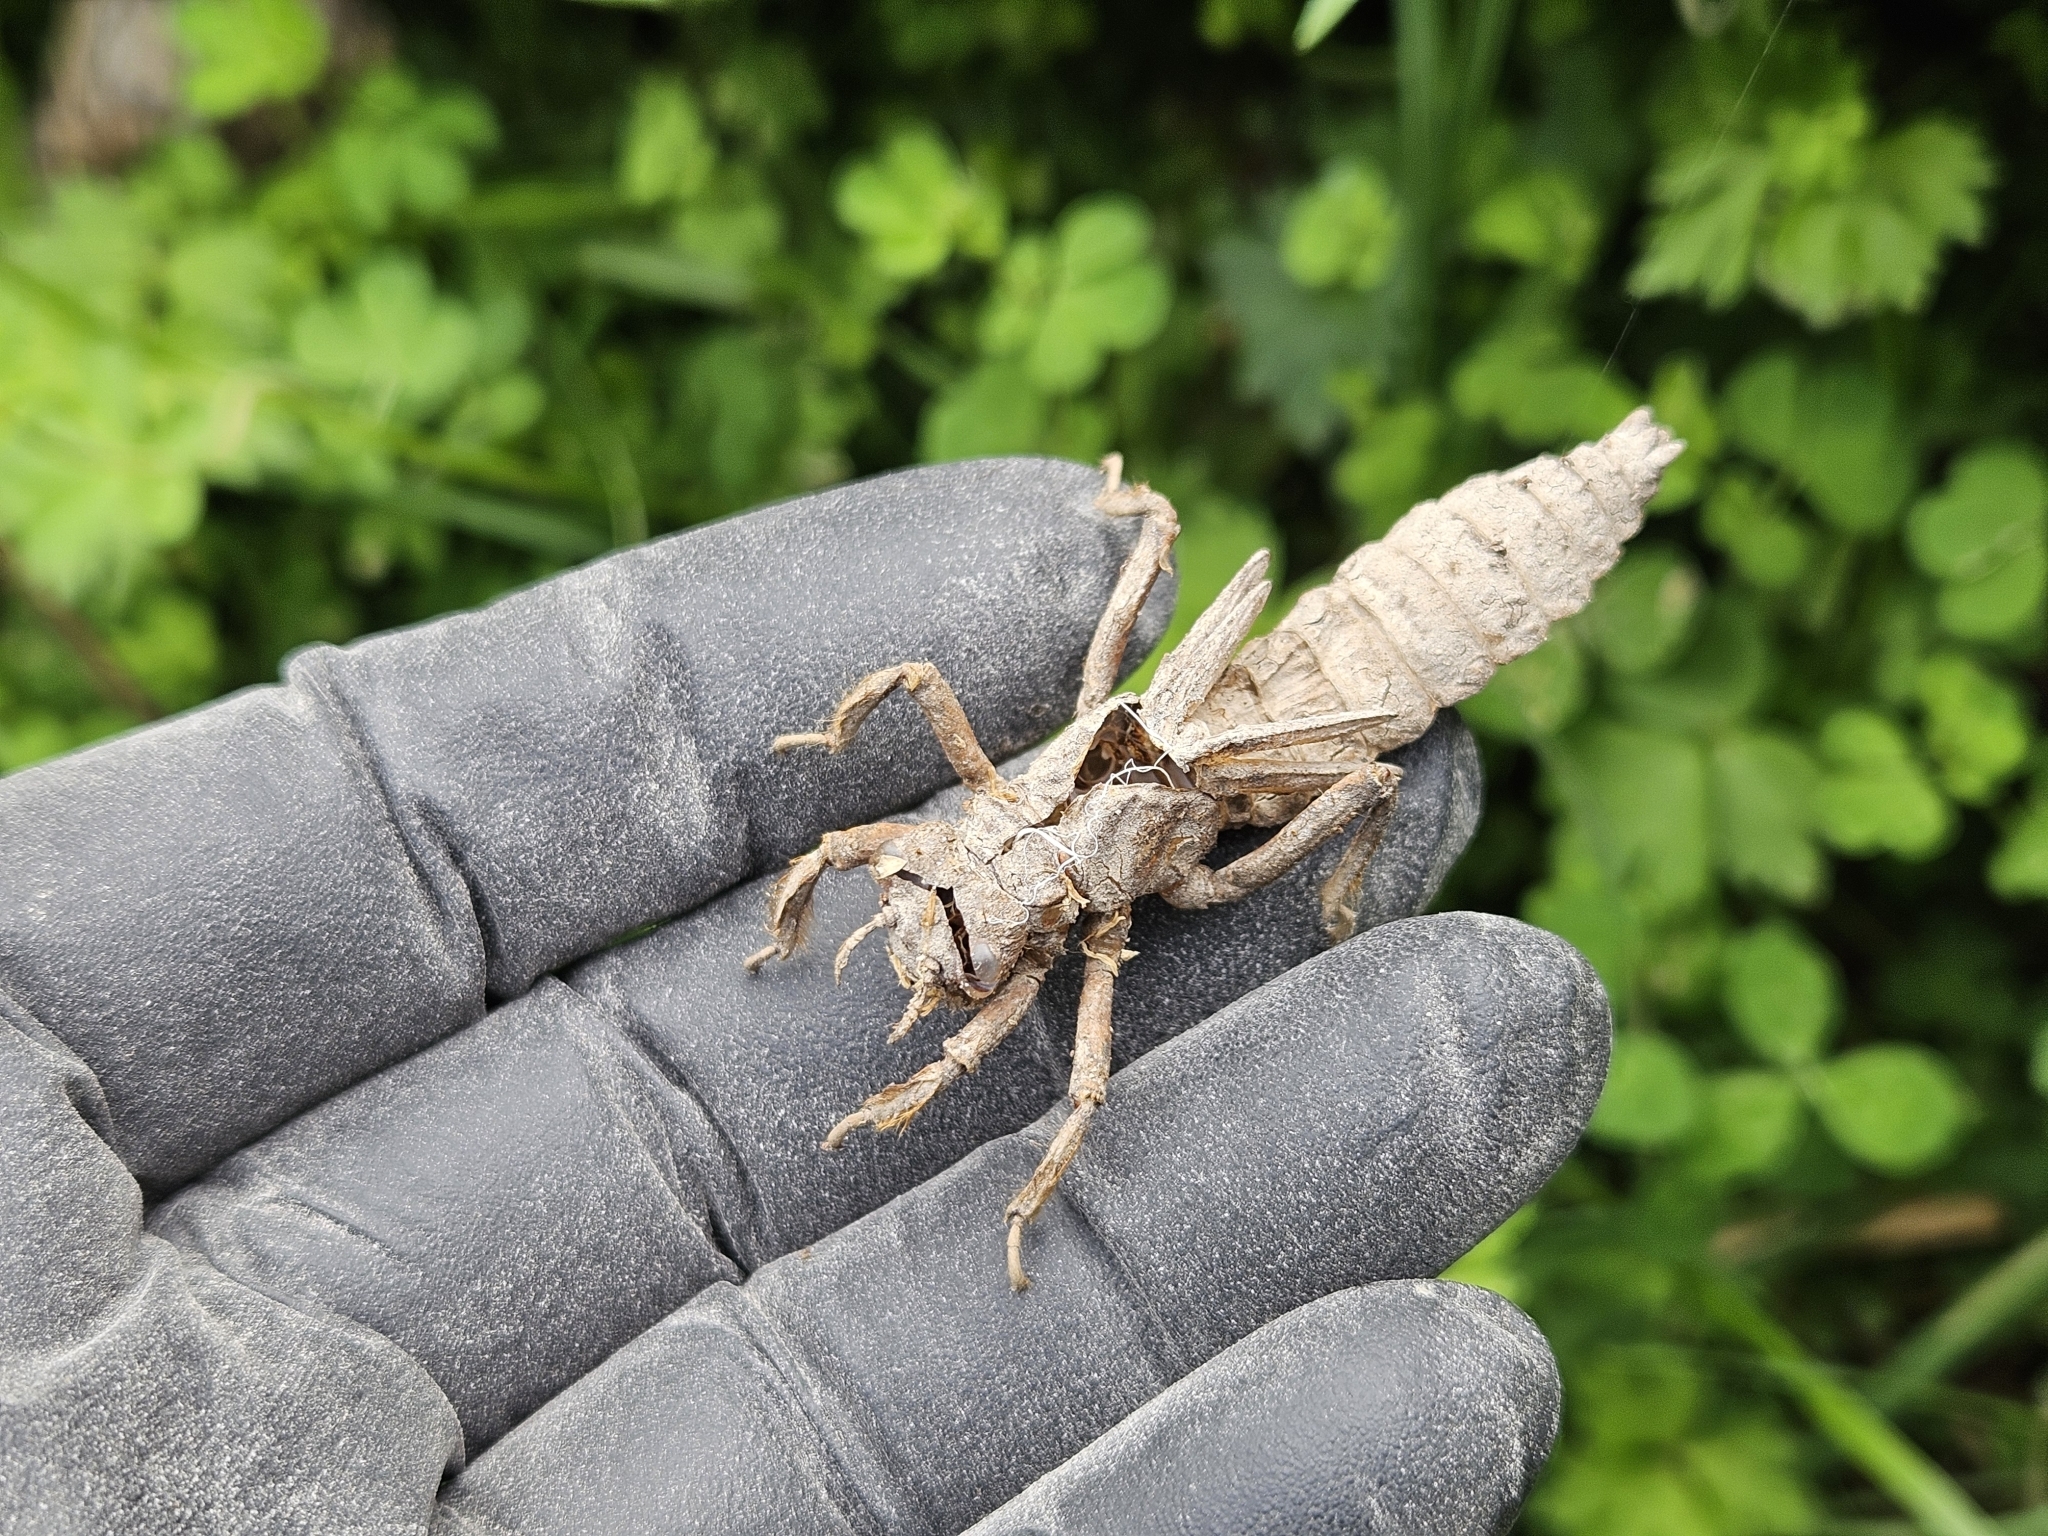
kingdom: Animalia
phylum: Arthropoda
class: Insecta
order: Odonata
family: Petaluridae
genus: Uropetala
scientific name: Uropetala carovei
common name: Bush giant dragonfly
